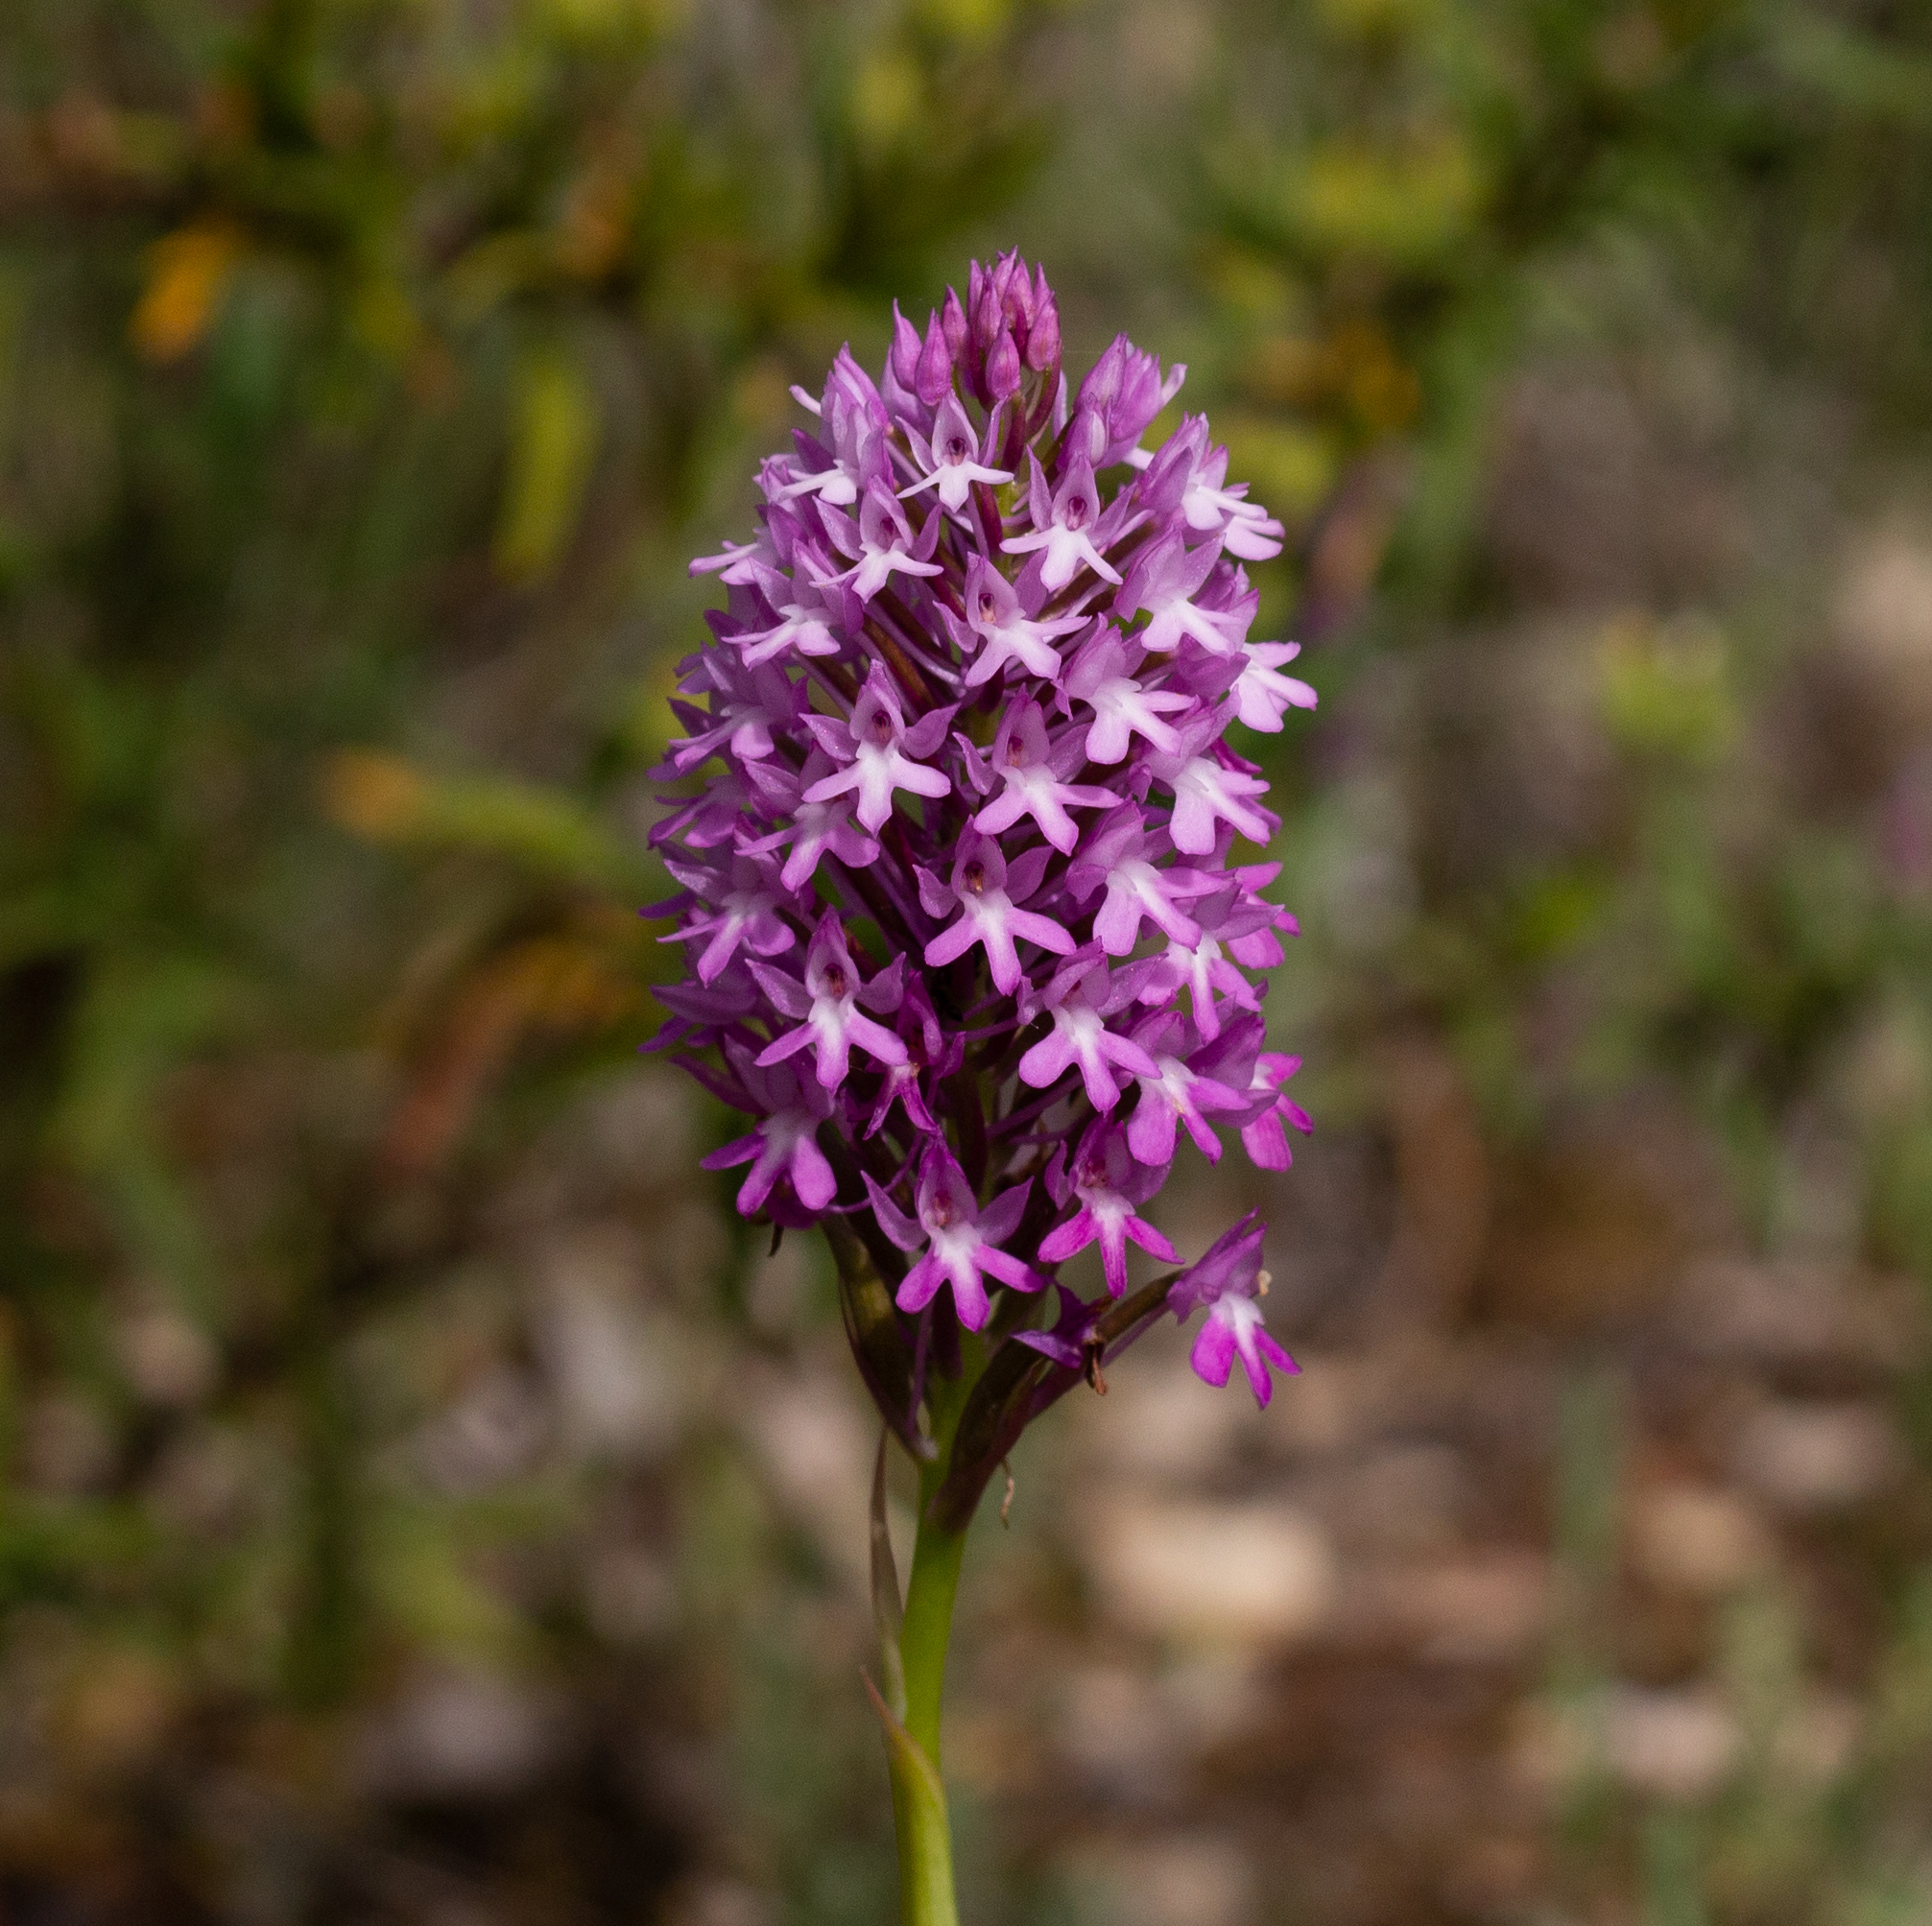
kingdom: Plantae
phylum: Tracheophyta
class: Liliopsida
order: Asparagales
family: Orchidaceae
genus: Anacamptis
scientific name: Anacamptis pyramidalis
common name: Pyramidal orchid
